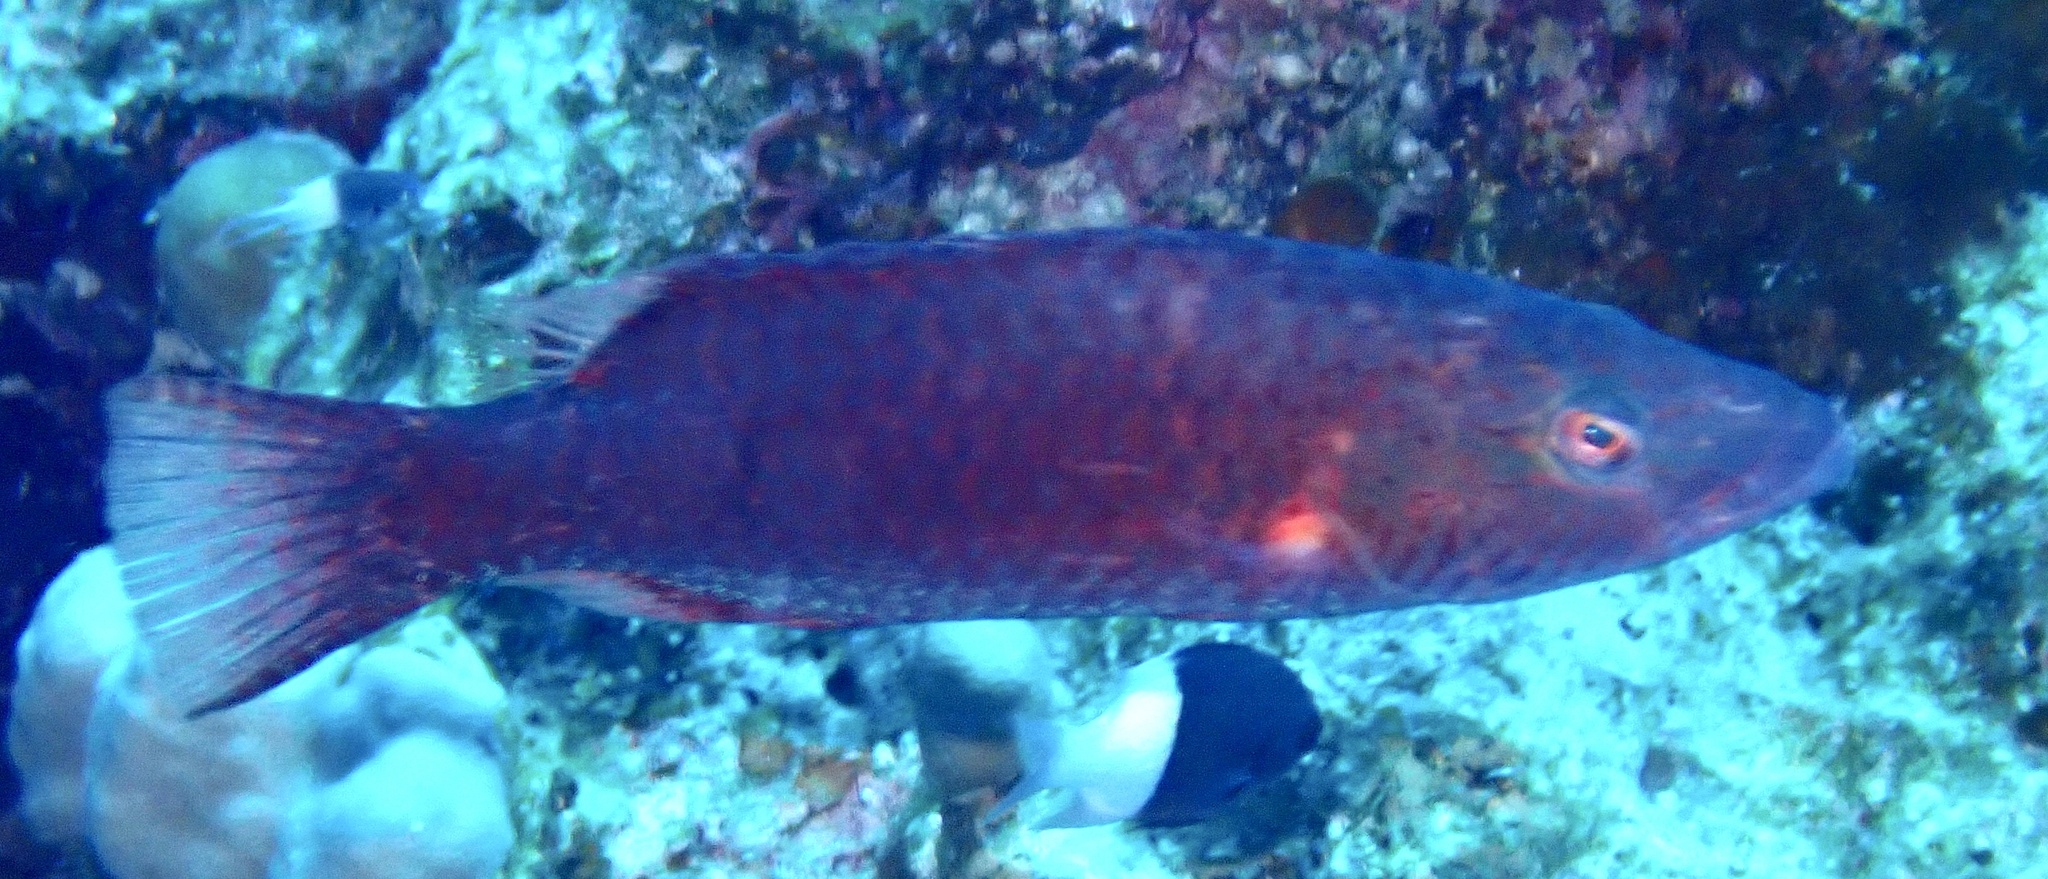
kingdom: Animalia
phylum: Chordata
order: Perciformes
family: Labridae
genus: Oxycheilinus
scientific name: Oxycheilinus digramma
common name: Bandcheek wrasse
